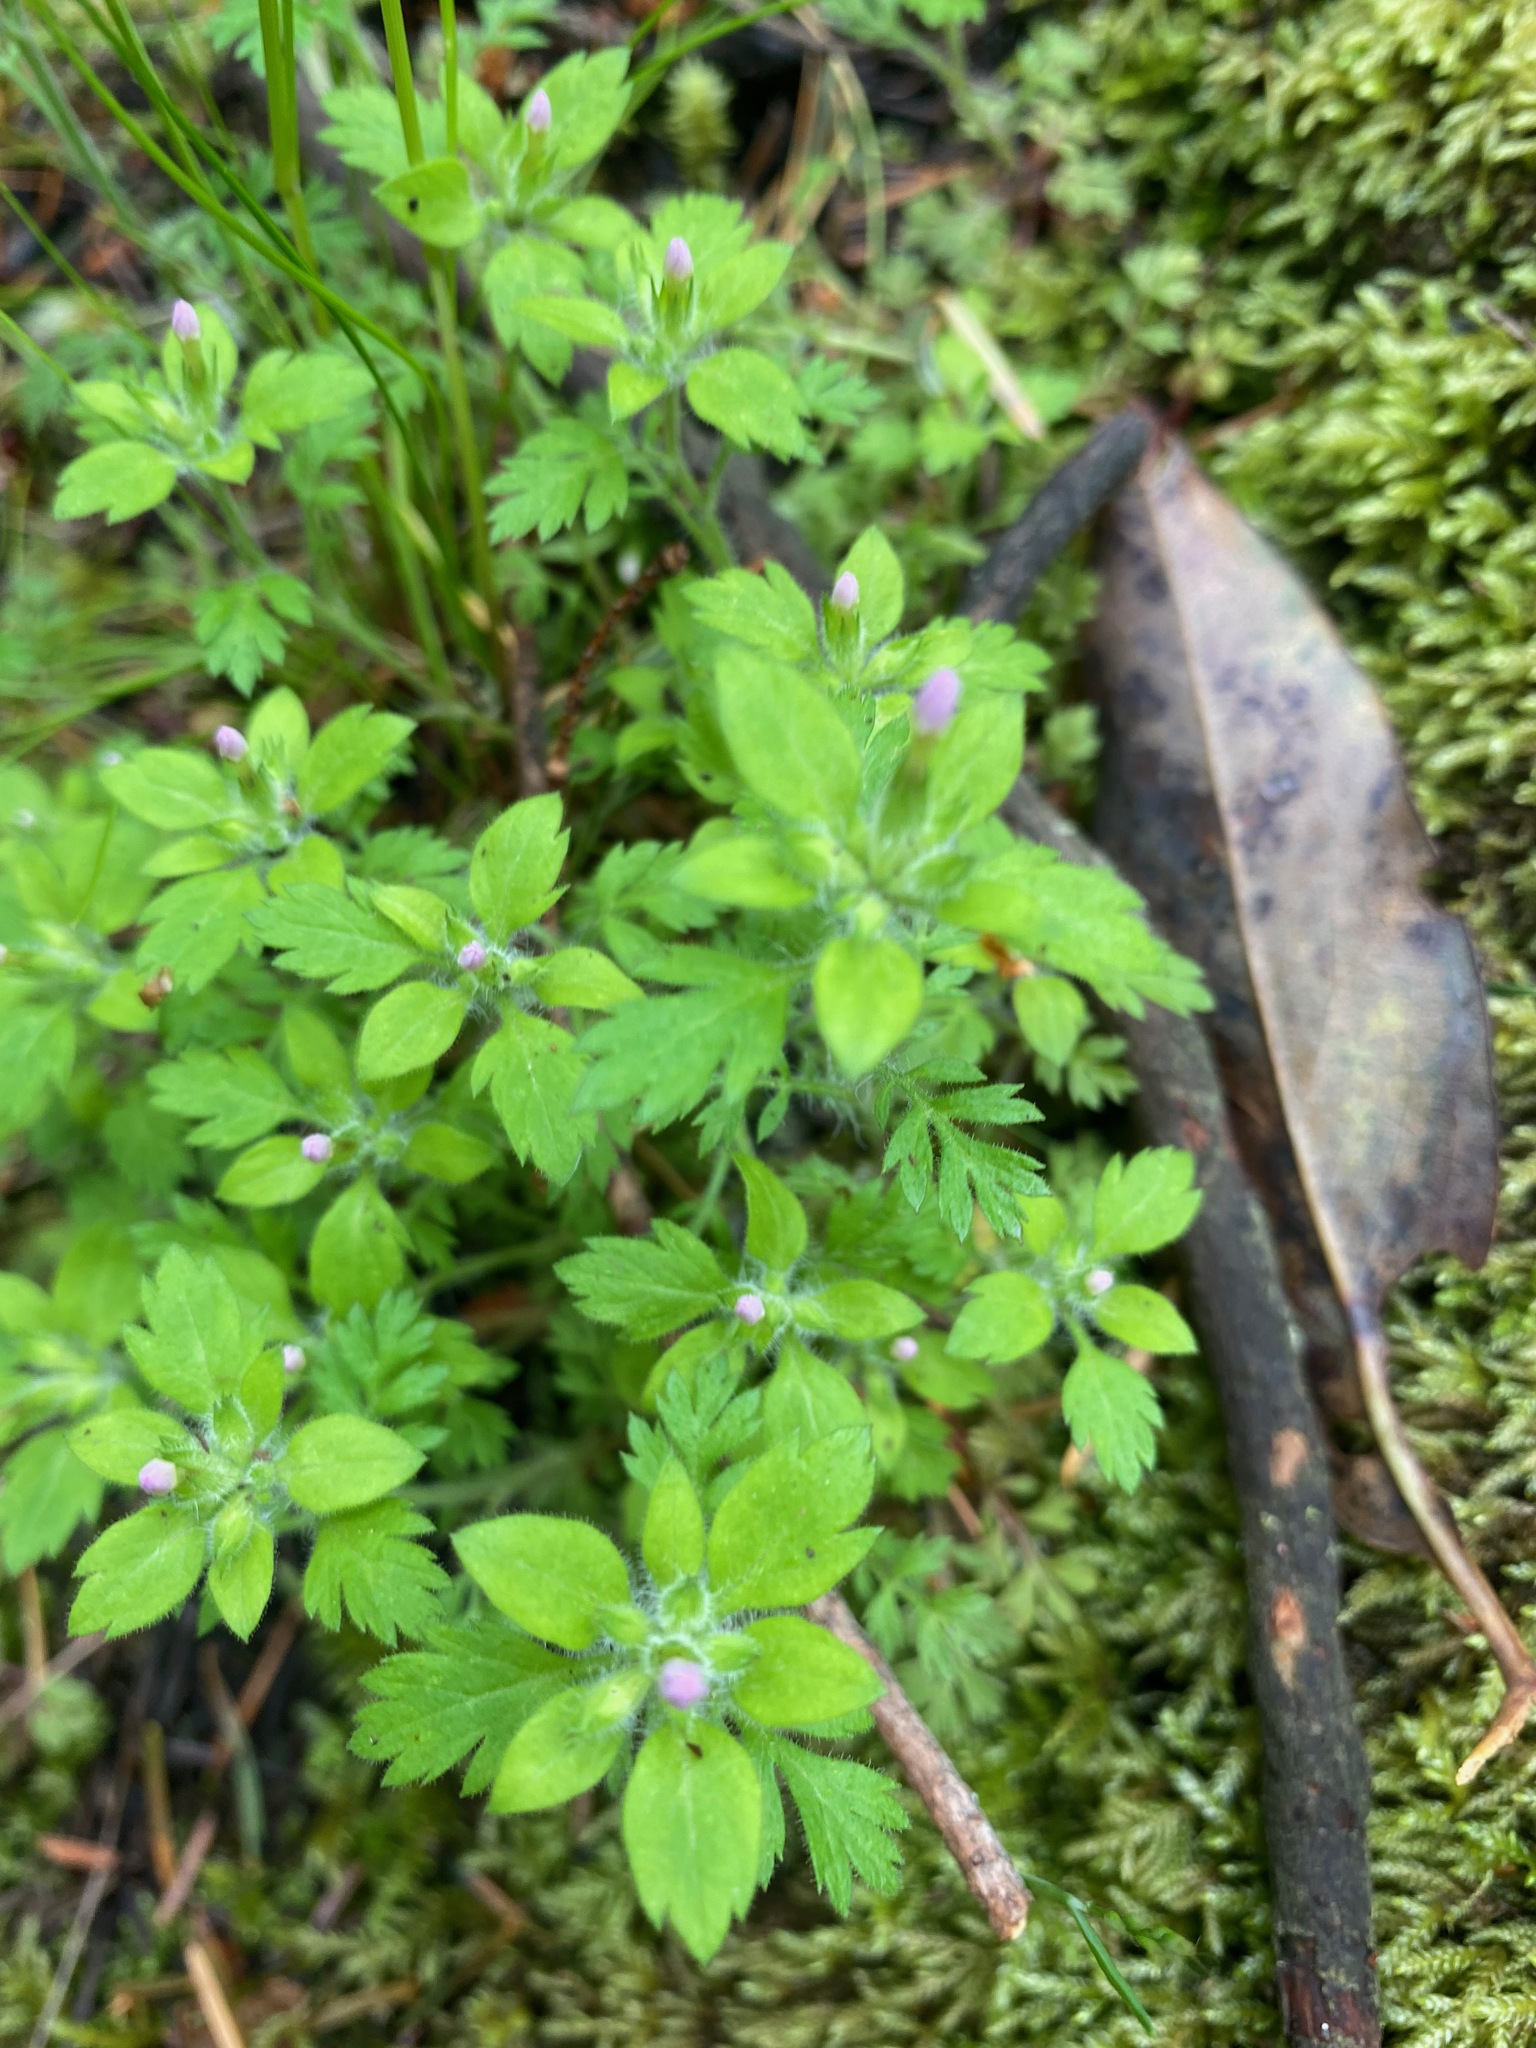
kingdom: Plantae
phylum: Tracheophyta
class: Magnoliopsida
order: Ericales
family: Polemoniaceae
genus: Collomia
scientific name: Collomia heterophylla
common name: Variable-leaved collomia
